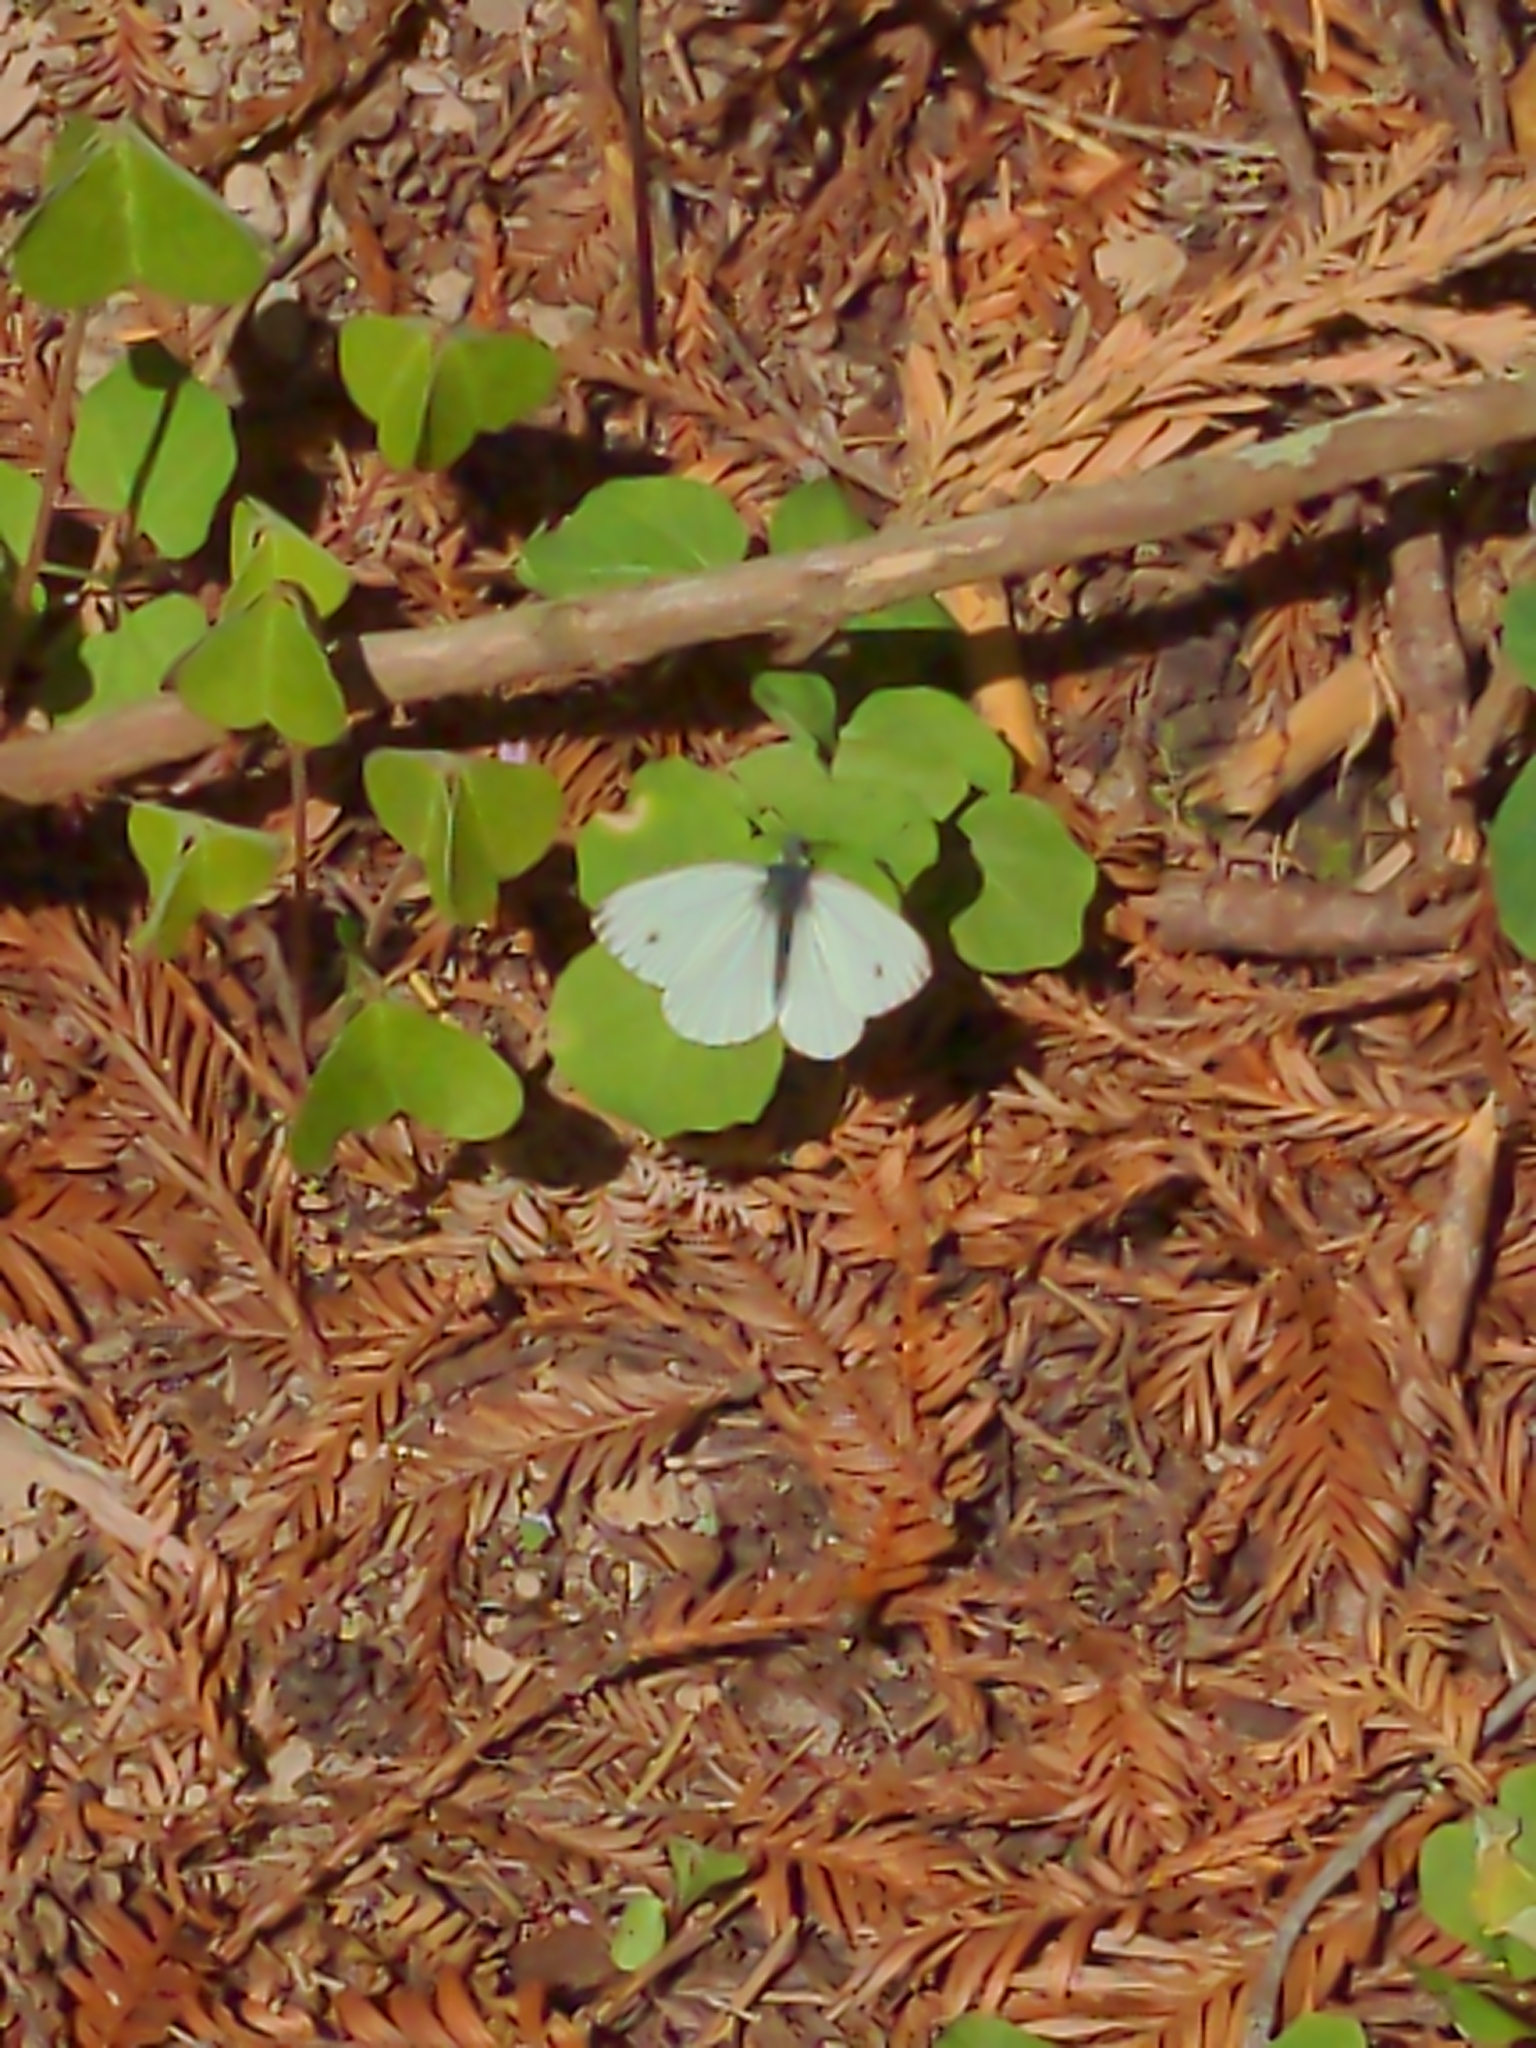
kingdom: Animalia
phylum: Arthropoda
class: Insecta
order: Lepidoptera
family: Pieridae
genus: Pieris
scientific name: Pieris rapae
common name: Small white
